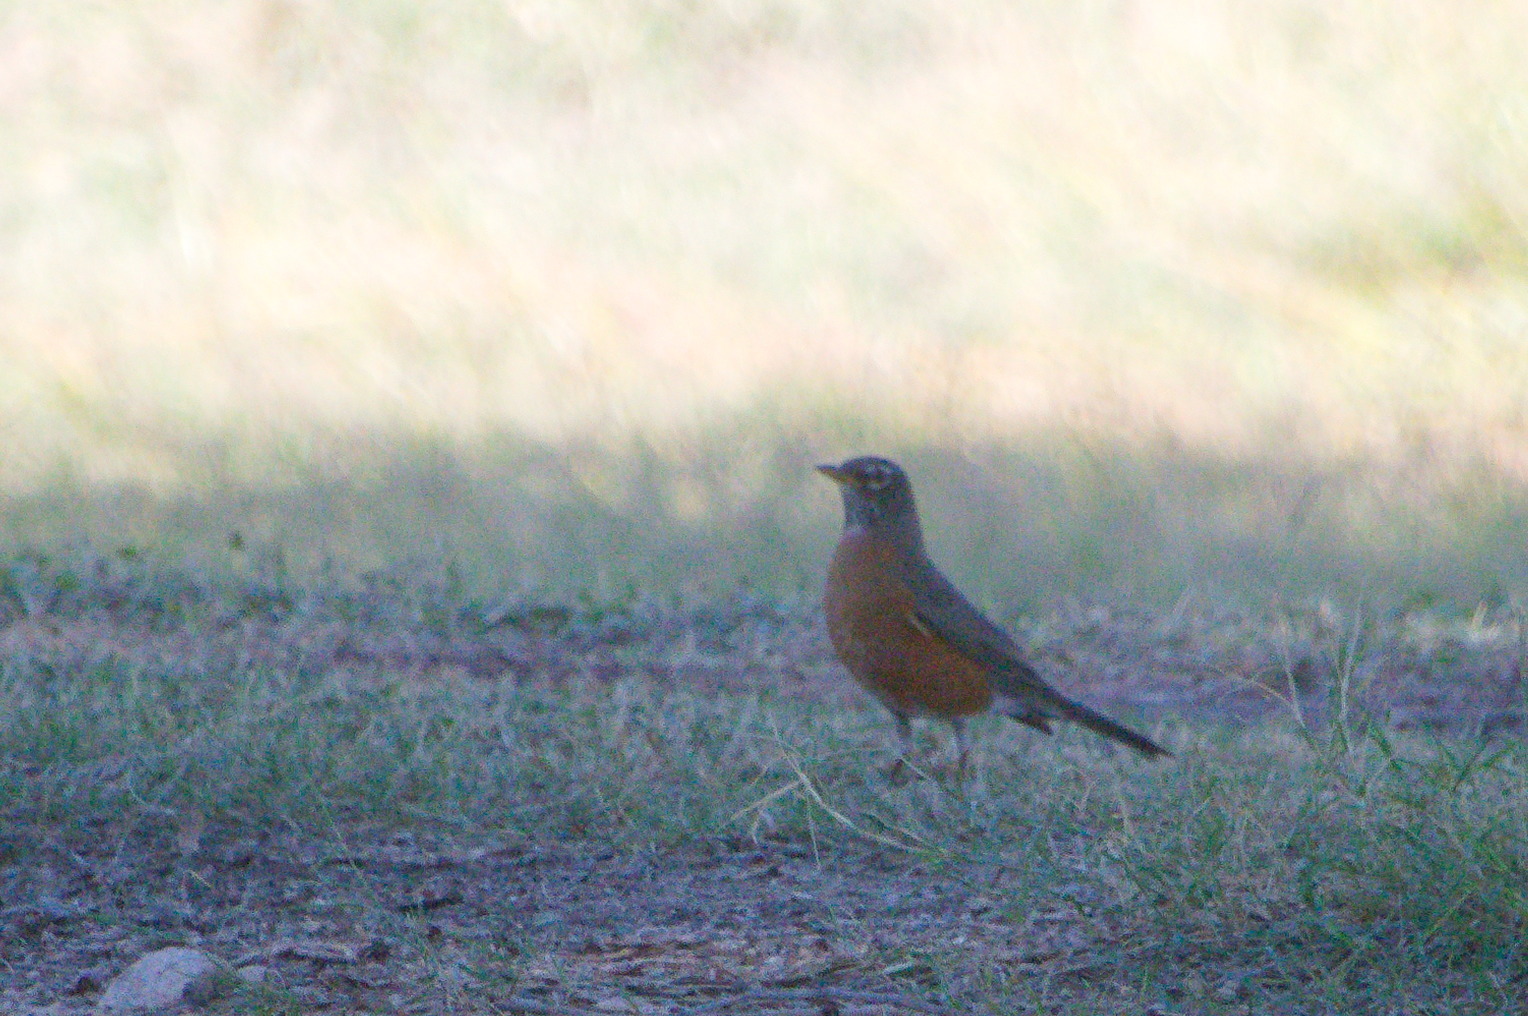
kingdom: Animalia
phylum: Chordata
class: Aves
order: Passeriformes
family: Turdidae
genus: Turdus
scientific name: Turdus migratorius
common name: American robin
